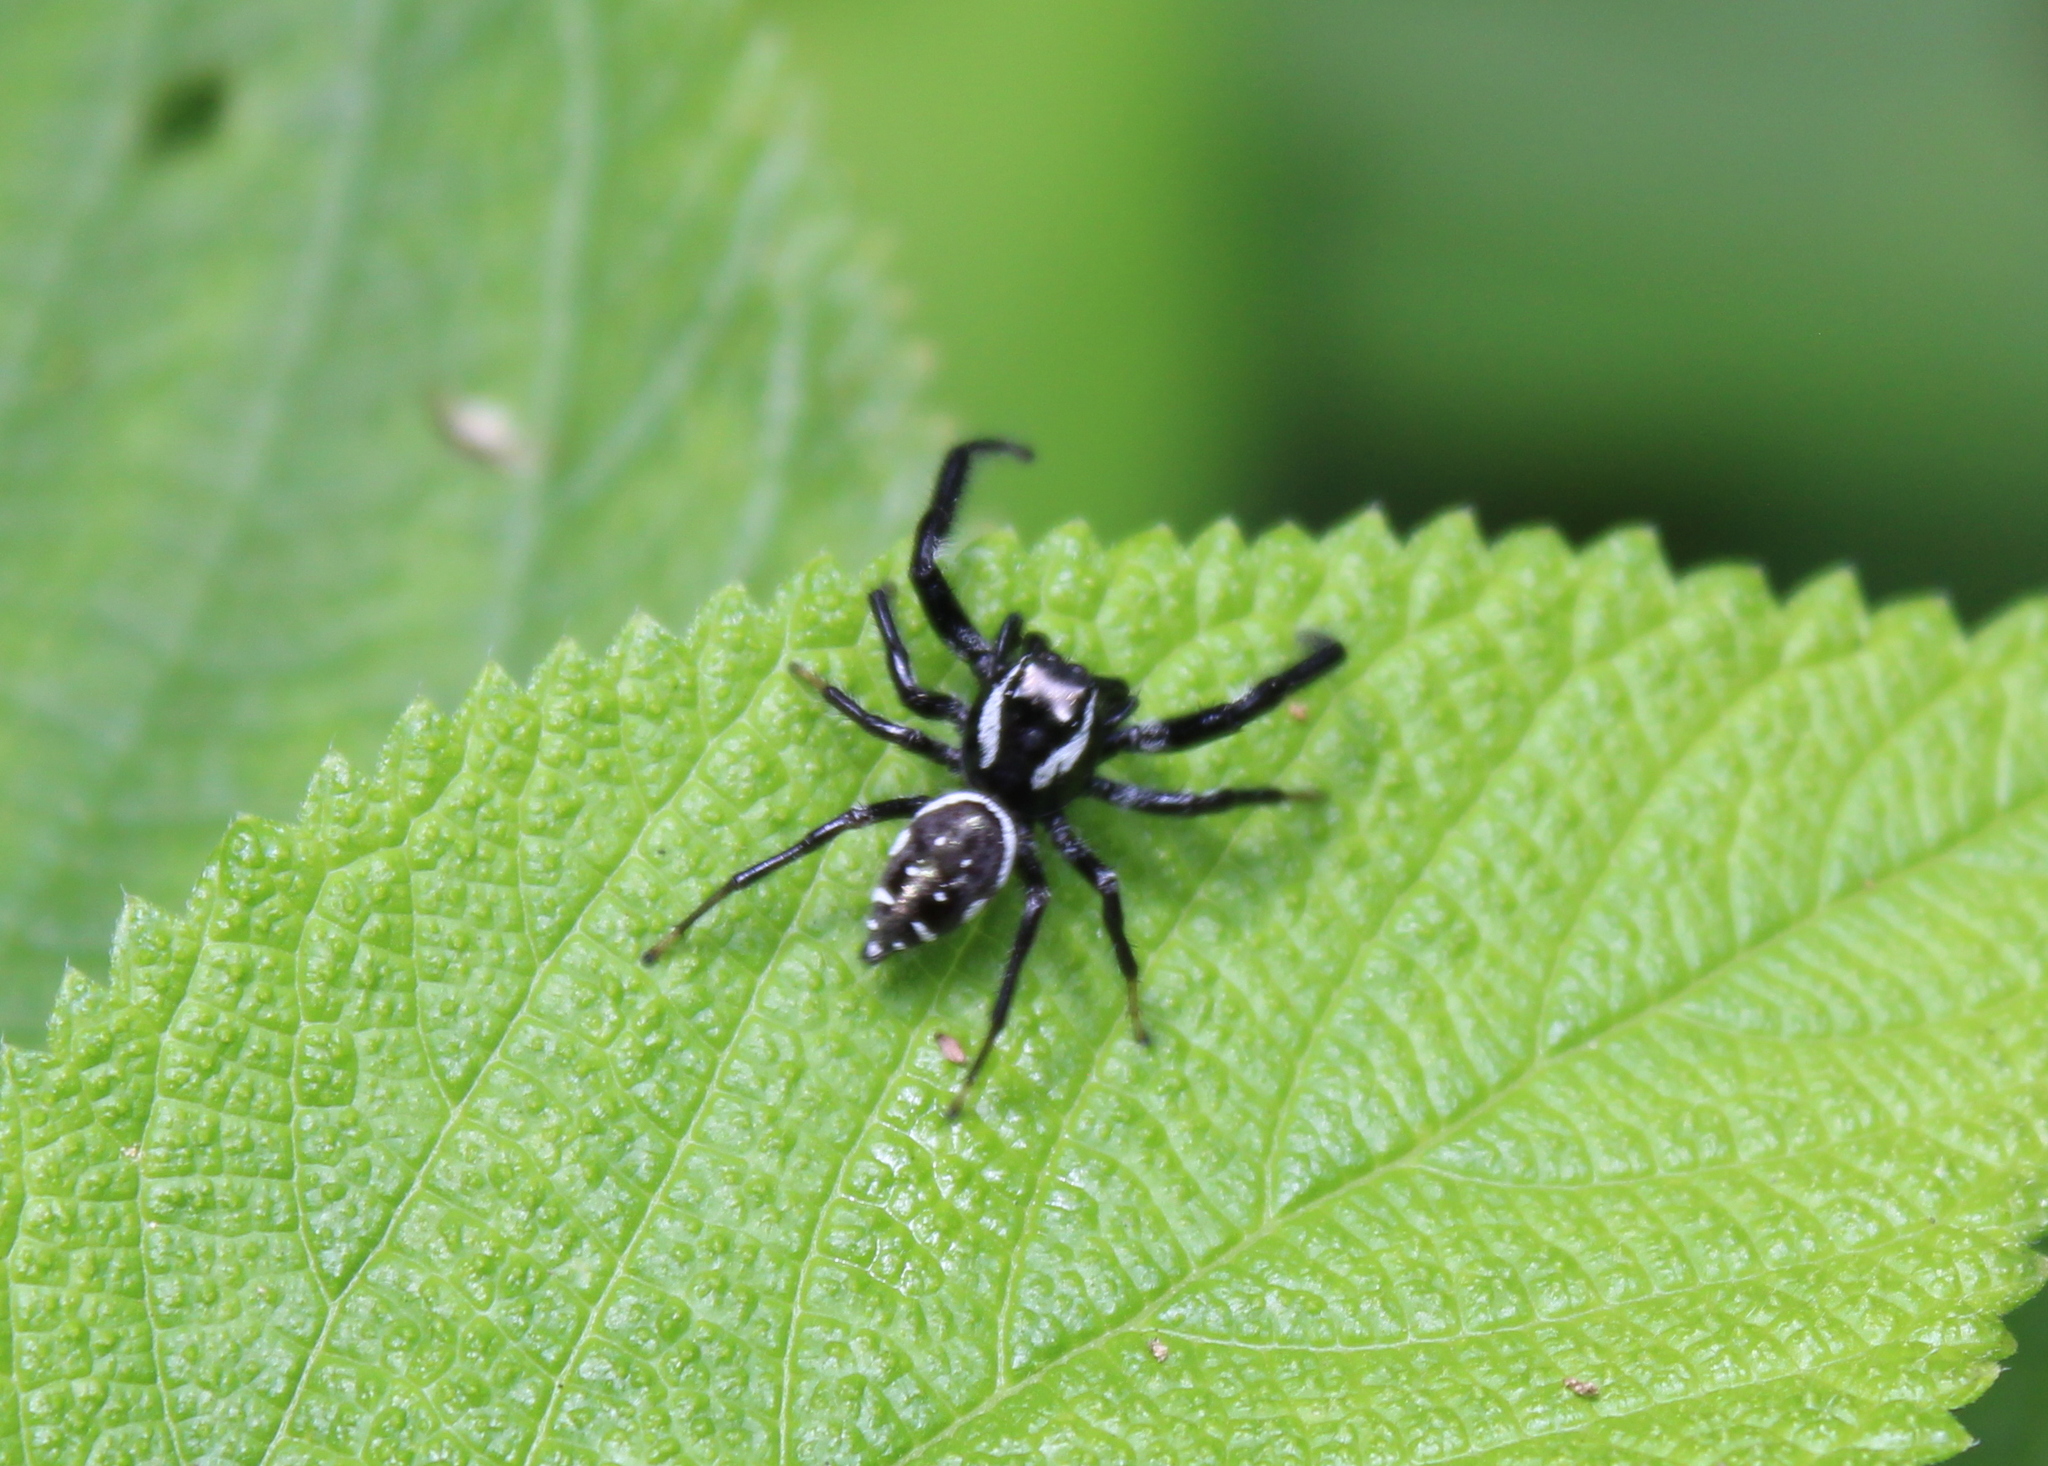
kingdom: Animalia
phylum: Arthropoda
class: Arachnida
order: Araneae
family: Salticidae
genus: Paraphidippus
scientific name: Paraphidippus aurantius
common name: Jumping spiders
